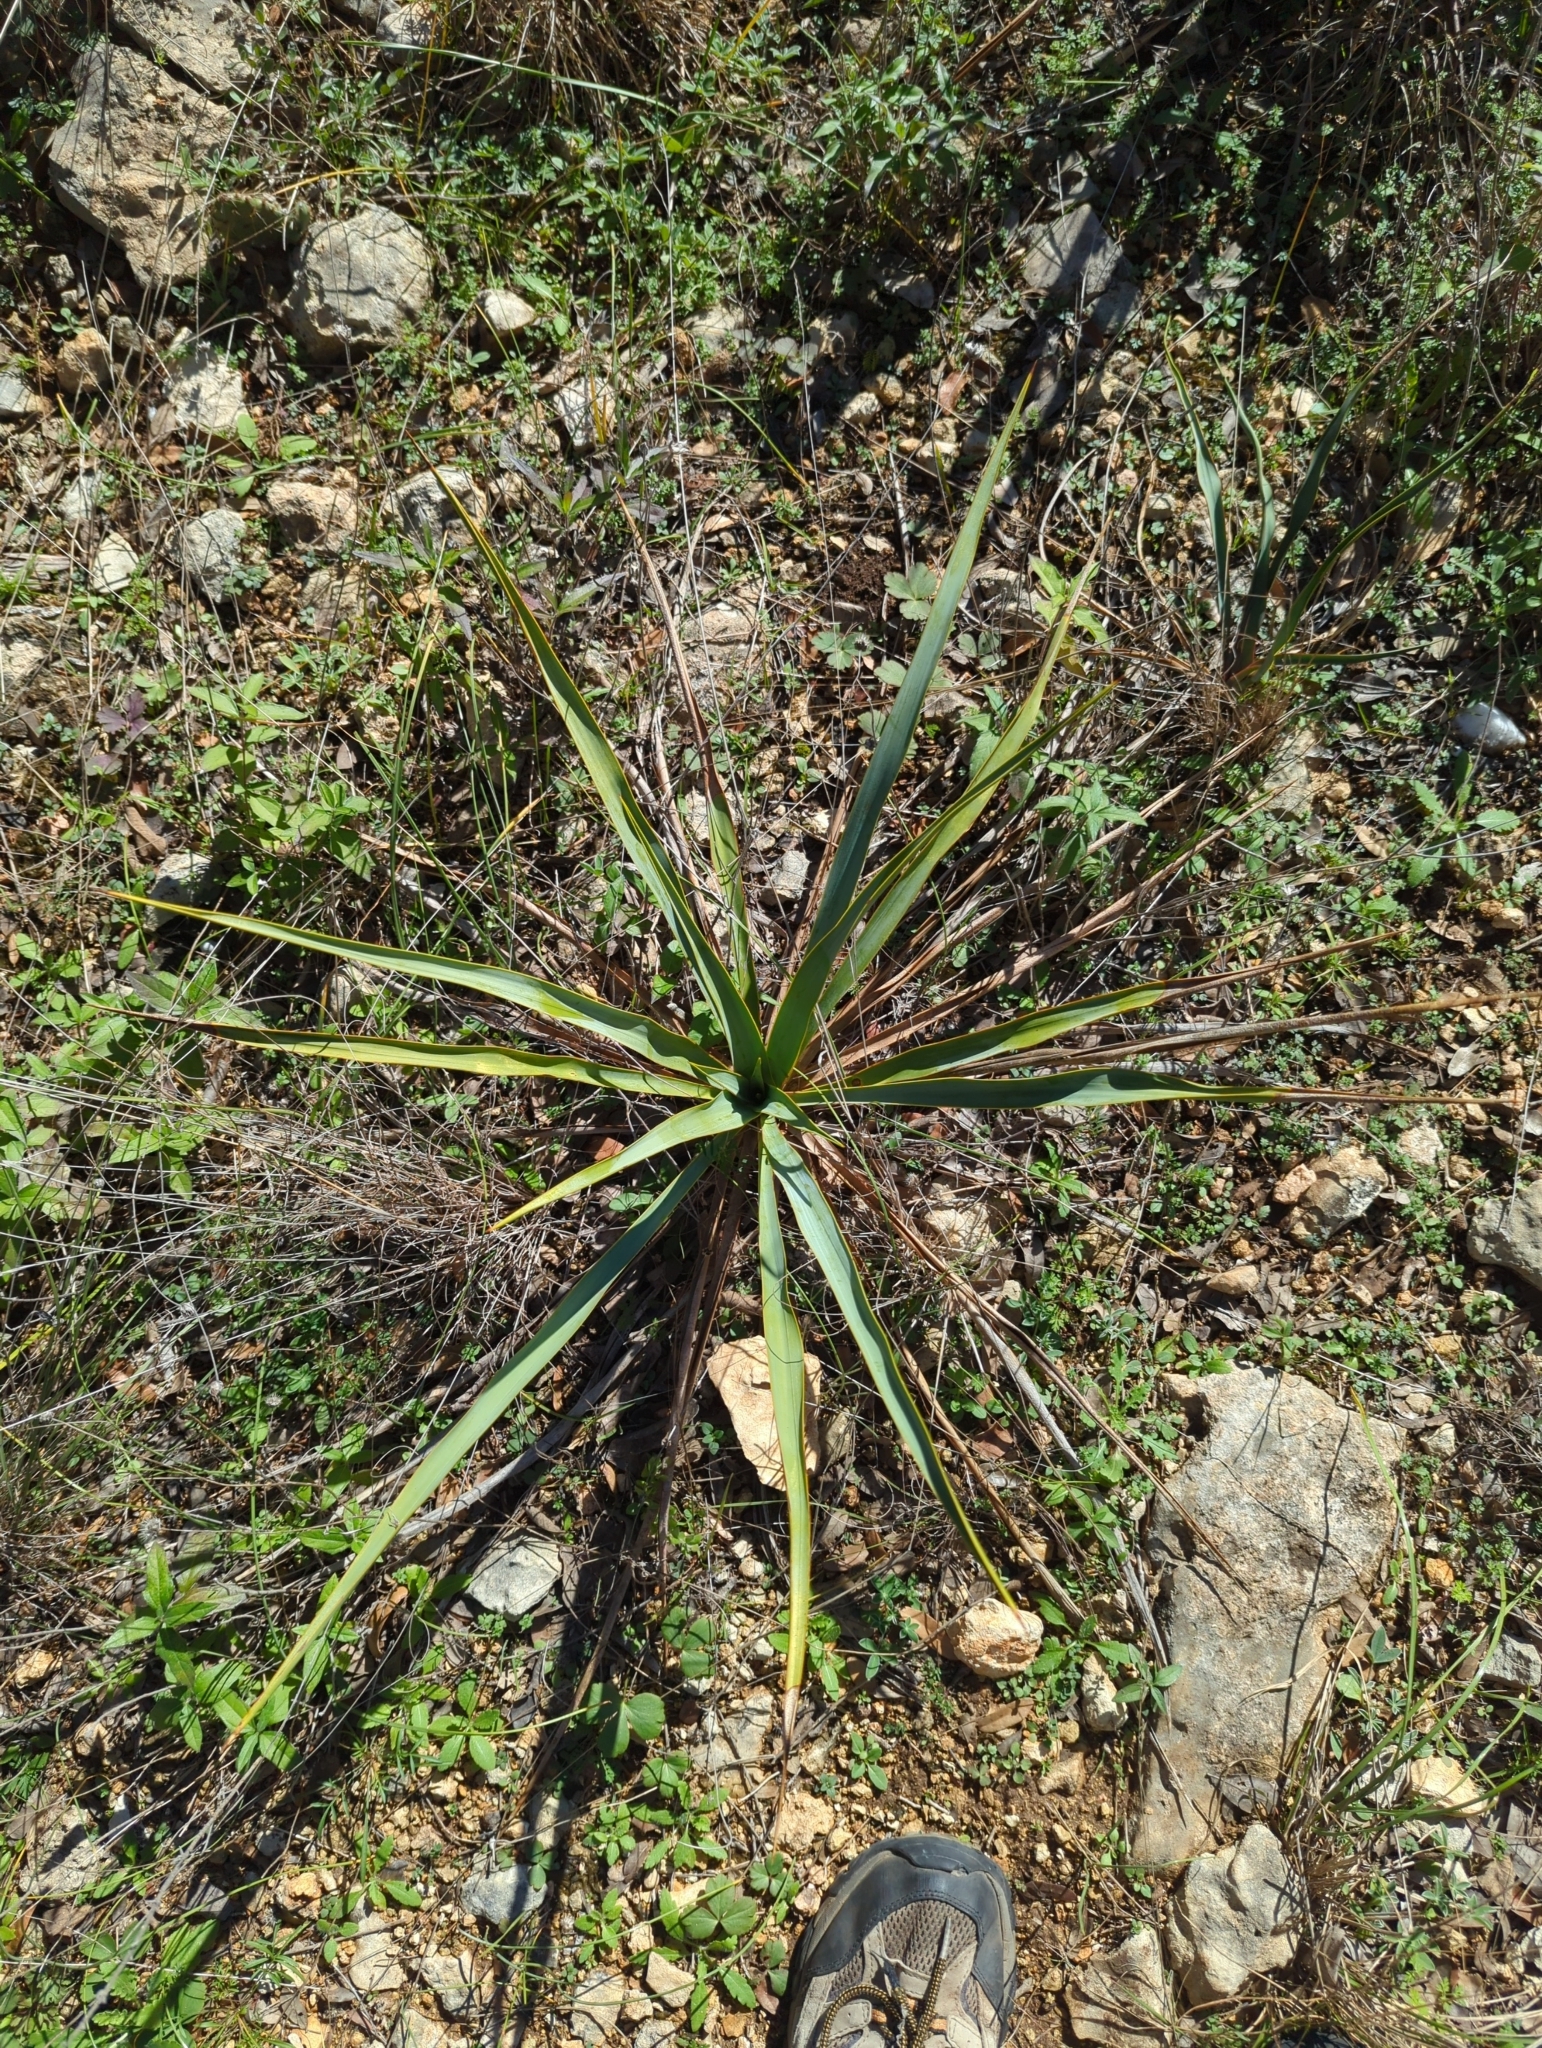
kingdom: Plantae
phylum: Tracheophyta
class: Liliopsida
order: Asparagales
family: Asparagaceae
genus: Yucca
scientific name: Yucca rupicola
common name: Twisted-leaf spanish-dagger
